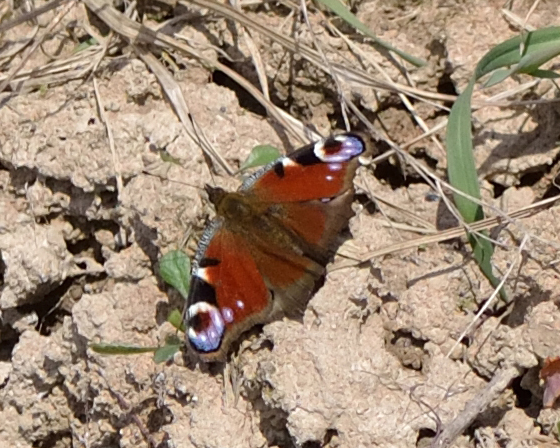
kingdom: Animalia
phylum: Arthropoda
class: Insecta
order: Lepidoptera
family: Nymphalidae
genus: Aglais
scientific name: Aglais io
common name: Peacock
